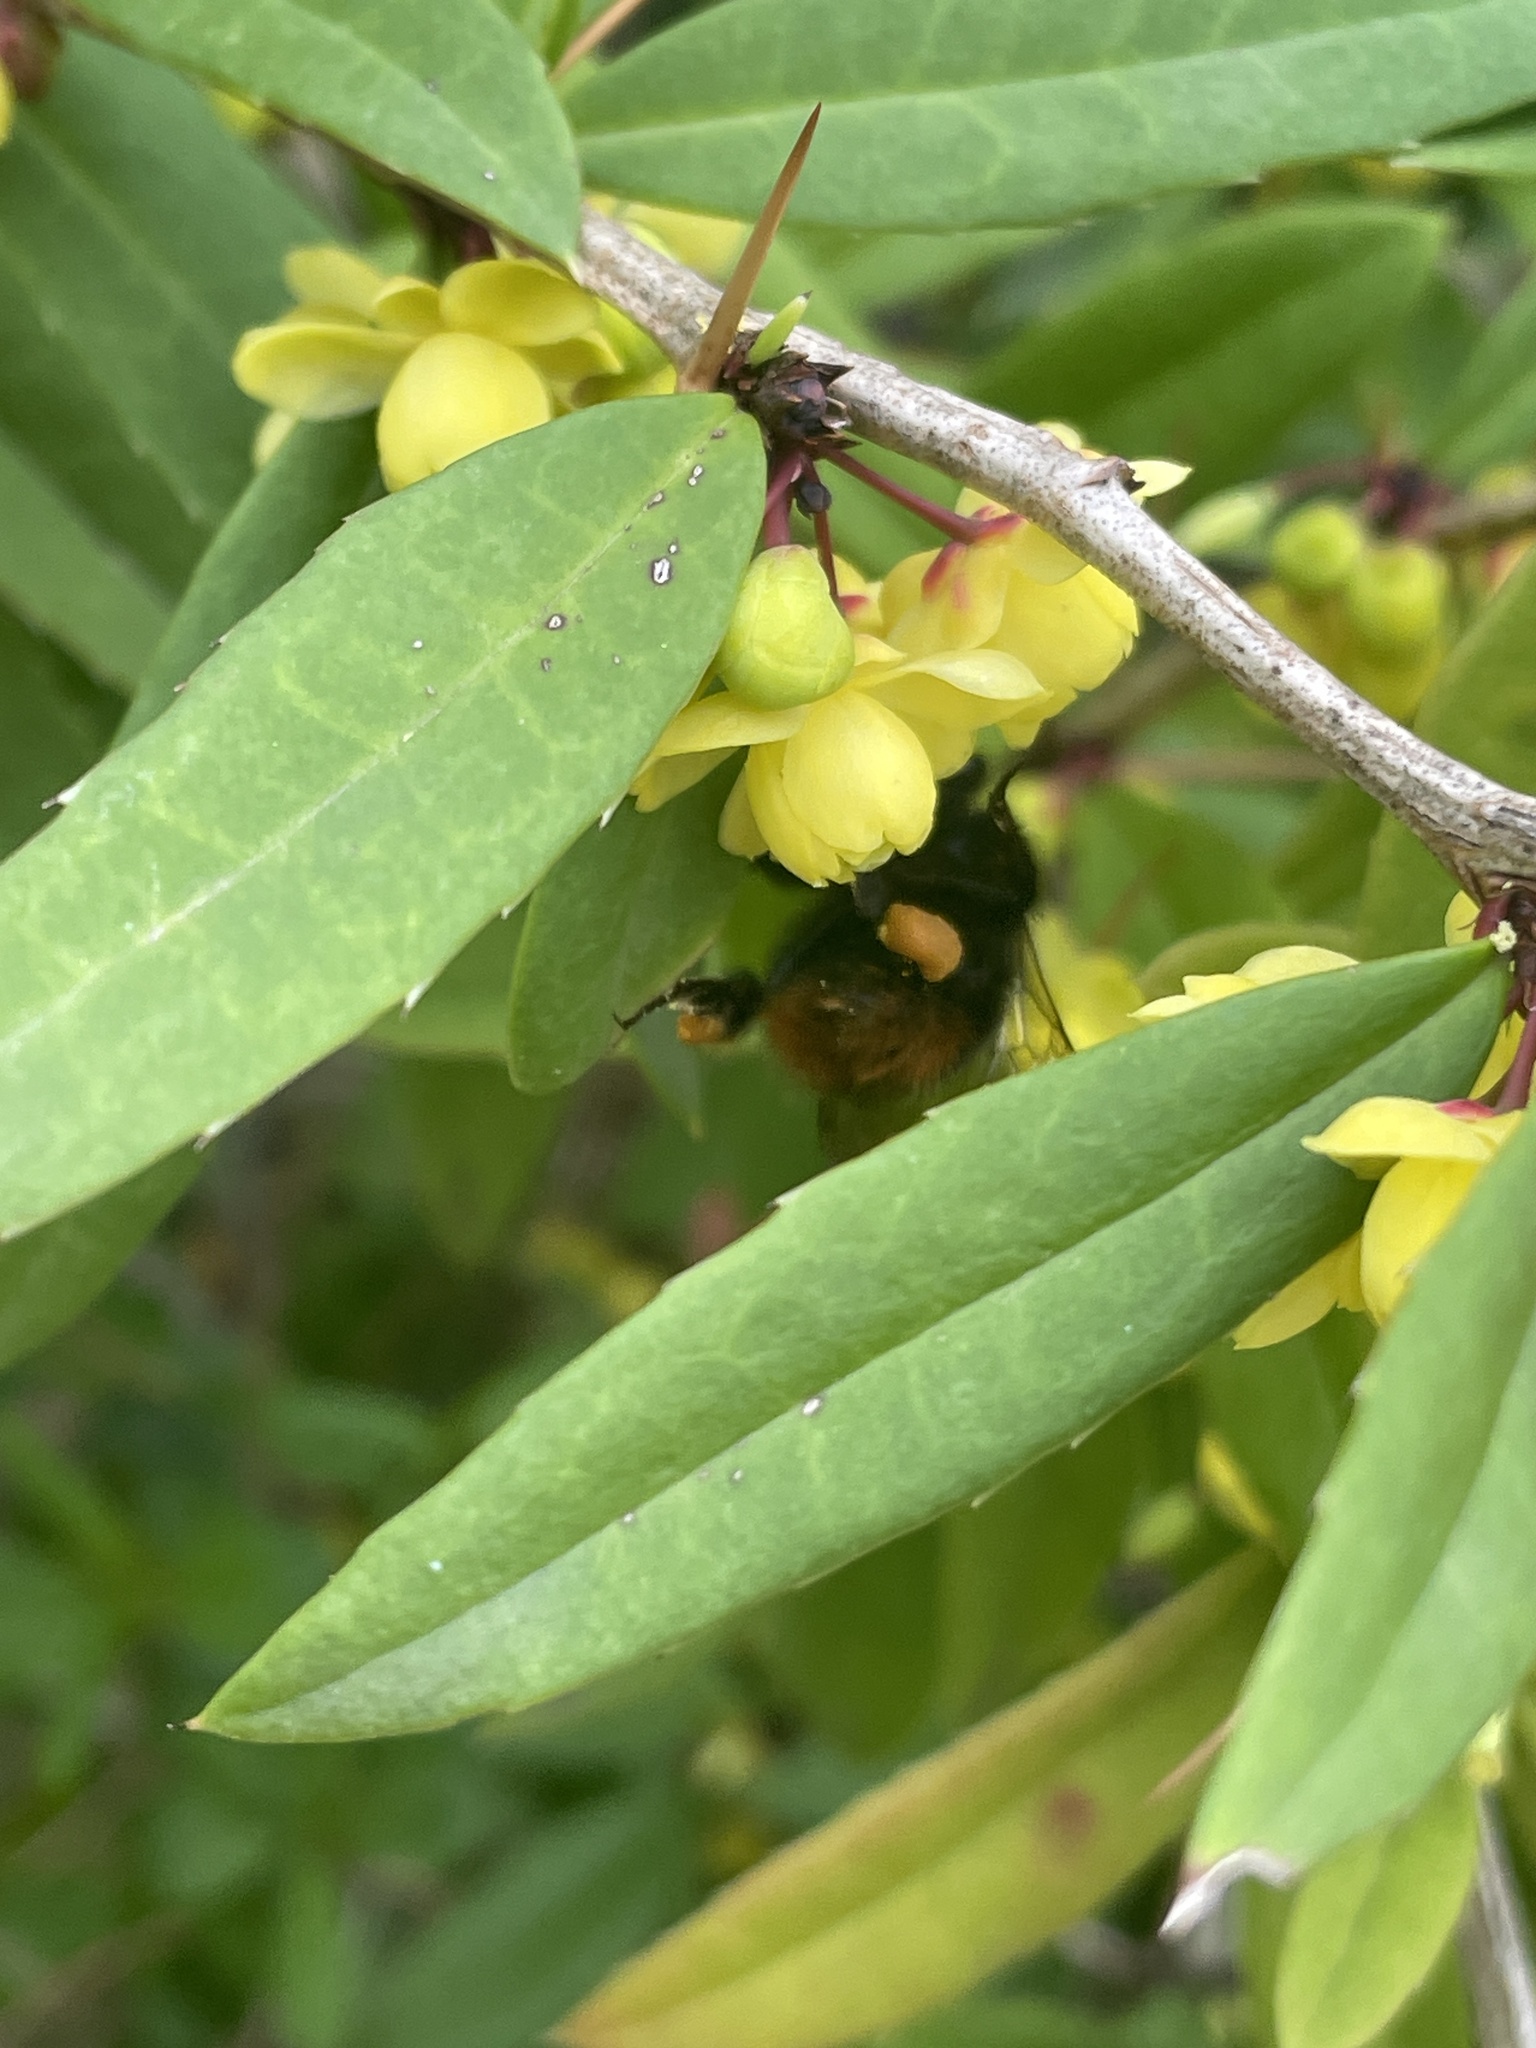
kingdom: Animalia
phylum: Arthropoda
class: Insecta
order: Hymenoptera
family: Apidae
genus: Bombus
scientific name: Bombus pratorum
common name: Early humble-bee
